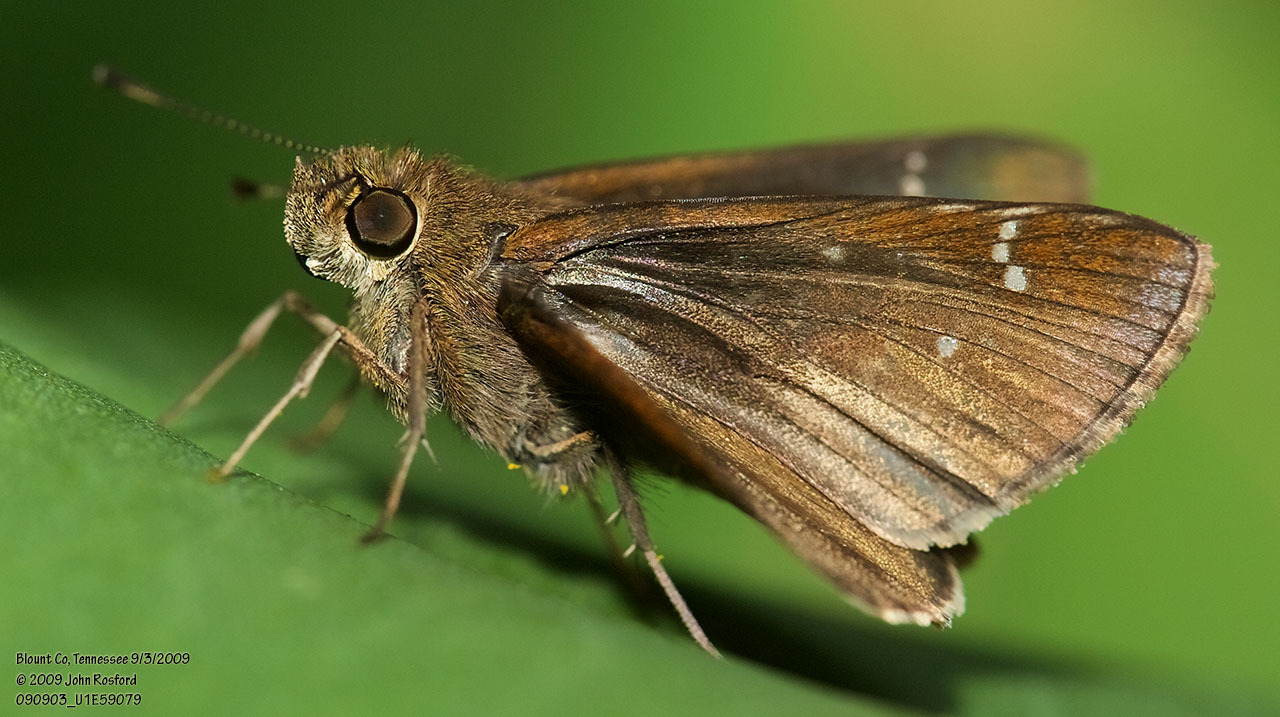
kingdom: Animalia
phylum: Arthropoda
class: Insecta
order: Lepidoptera
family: Hesperiidae
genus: Lerema
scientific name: Lerema accius
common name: Clouded skipper
